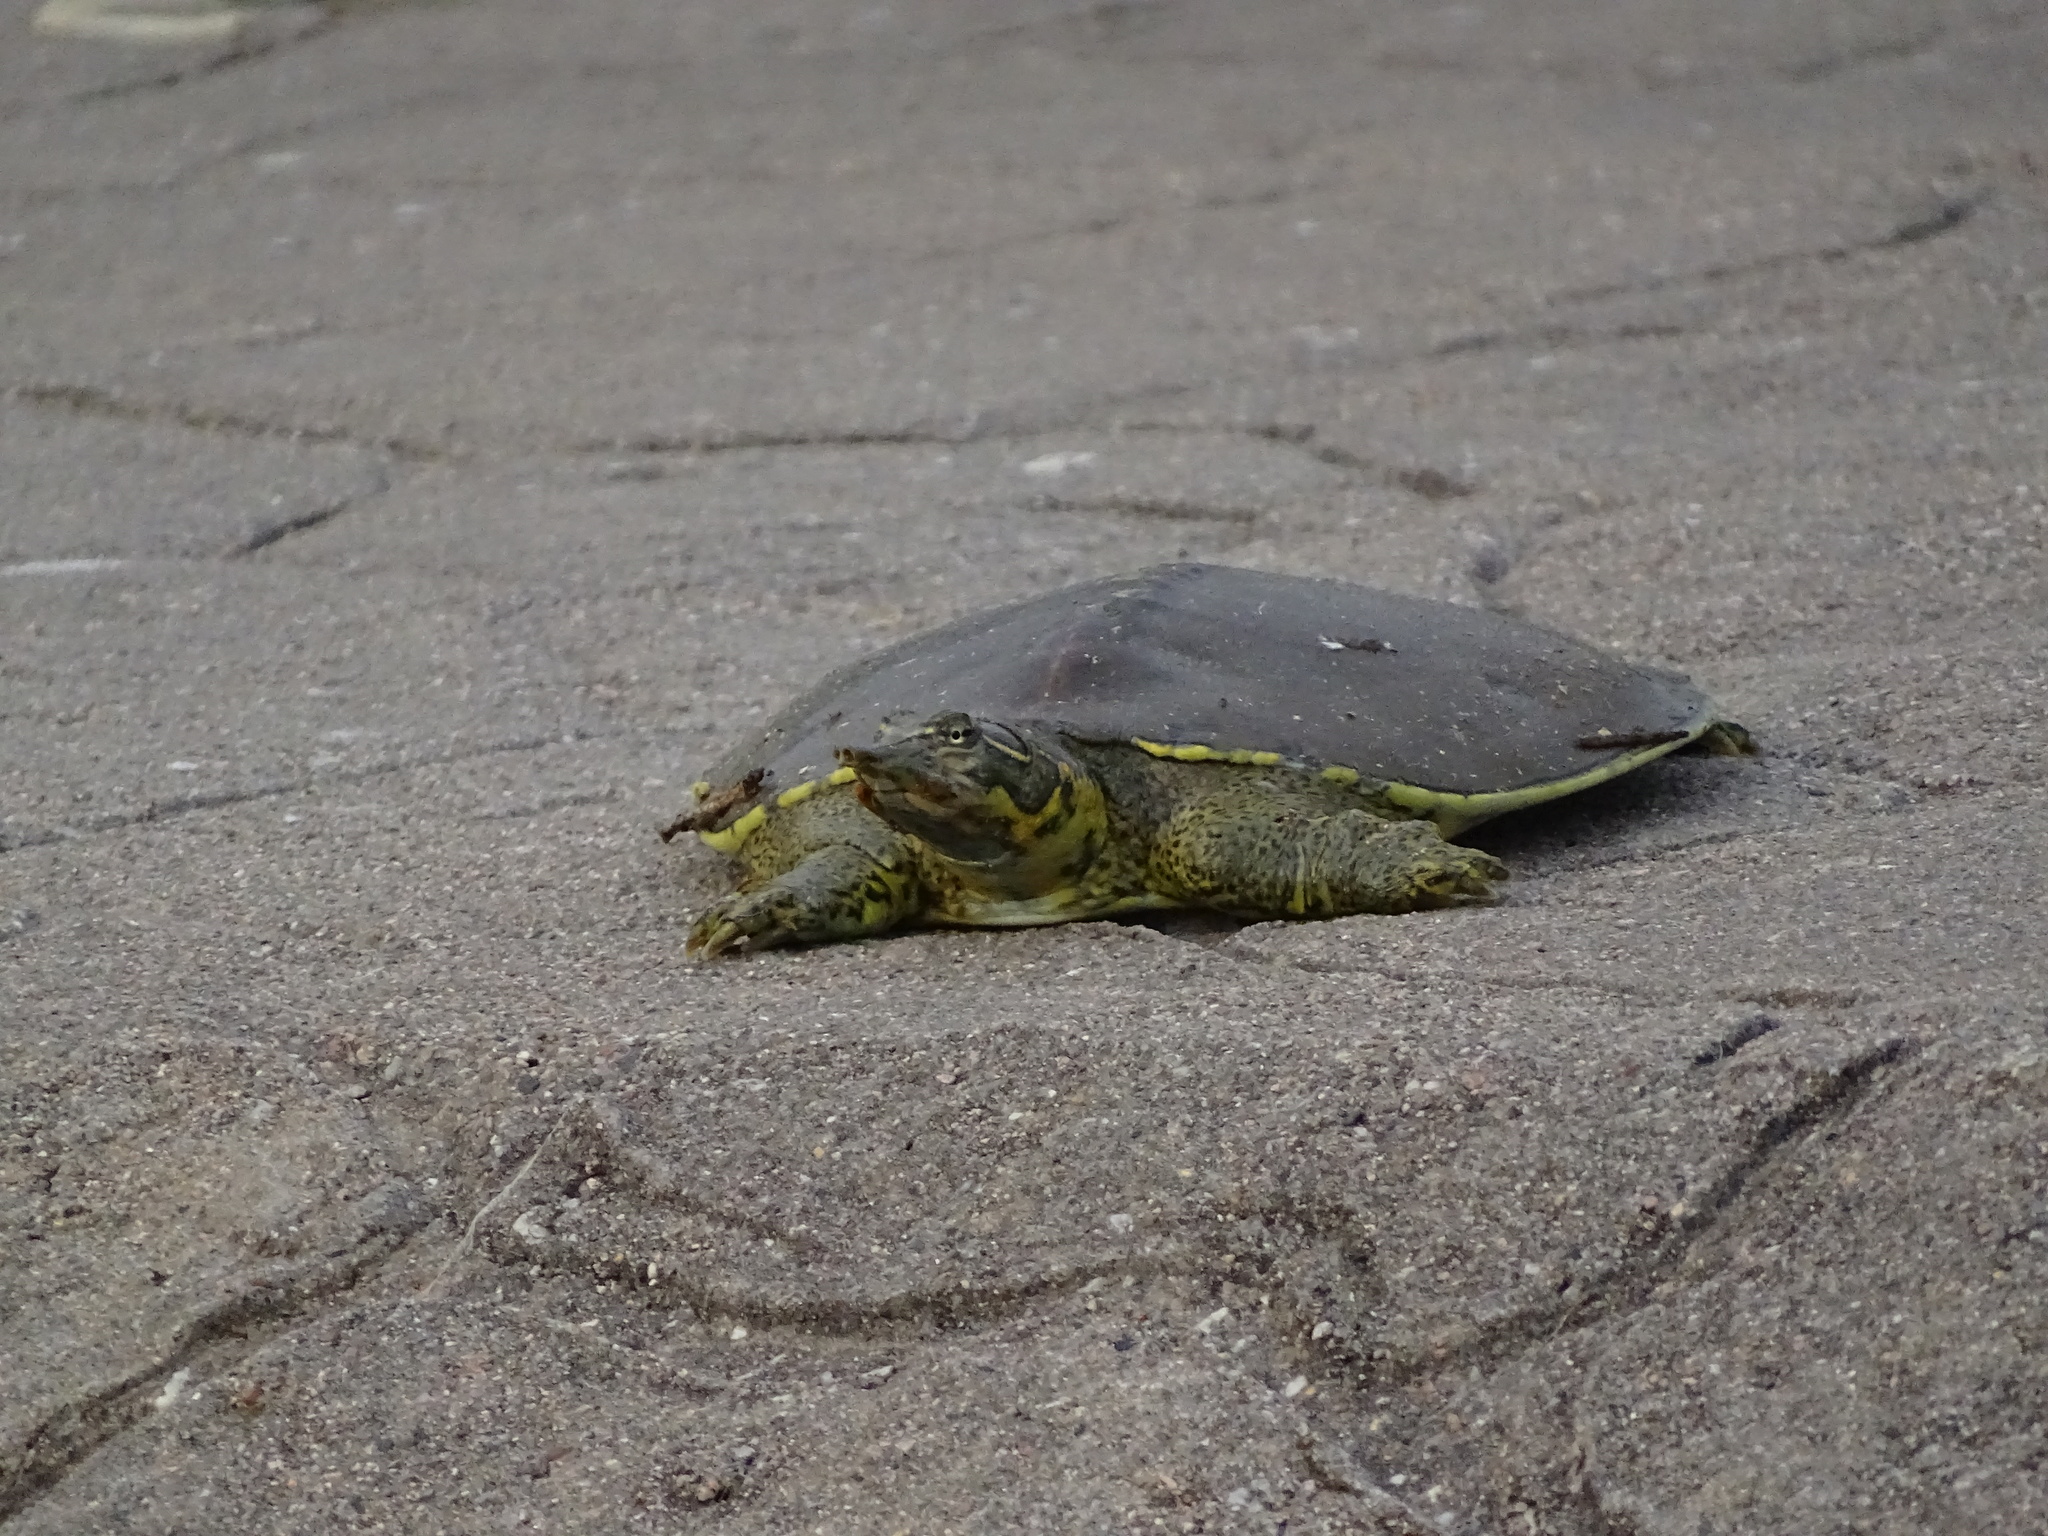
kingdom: Animalia
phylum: Chordata
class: Testudines
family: Trionychidae
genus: Apalone
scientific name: Apalone spinifera
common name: Spiny softshell turtle
